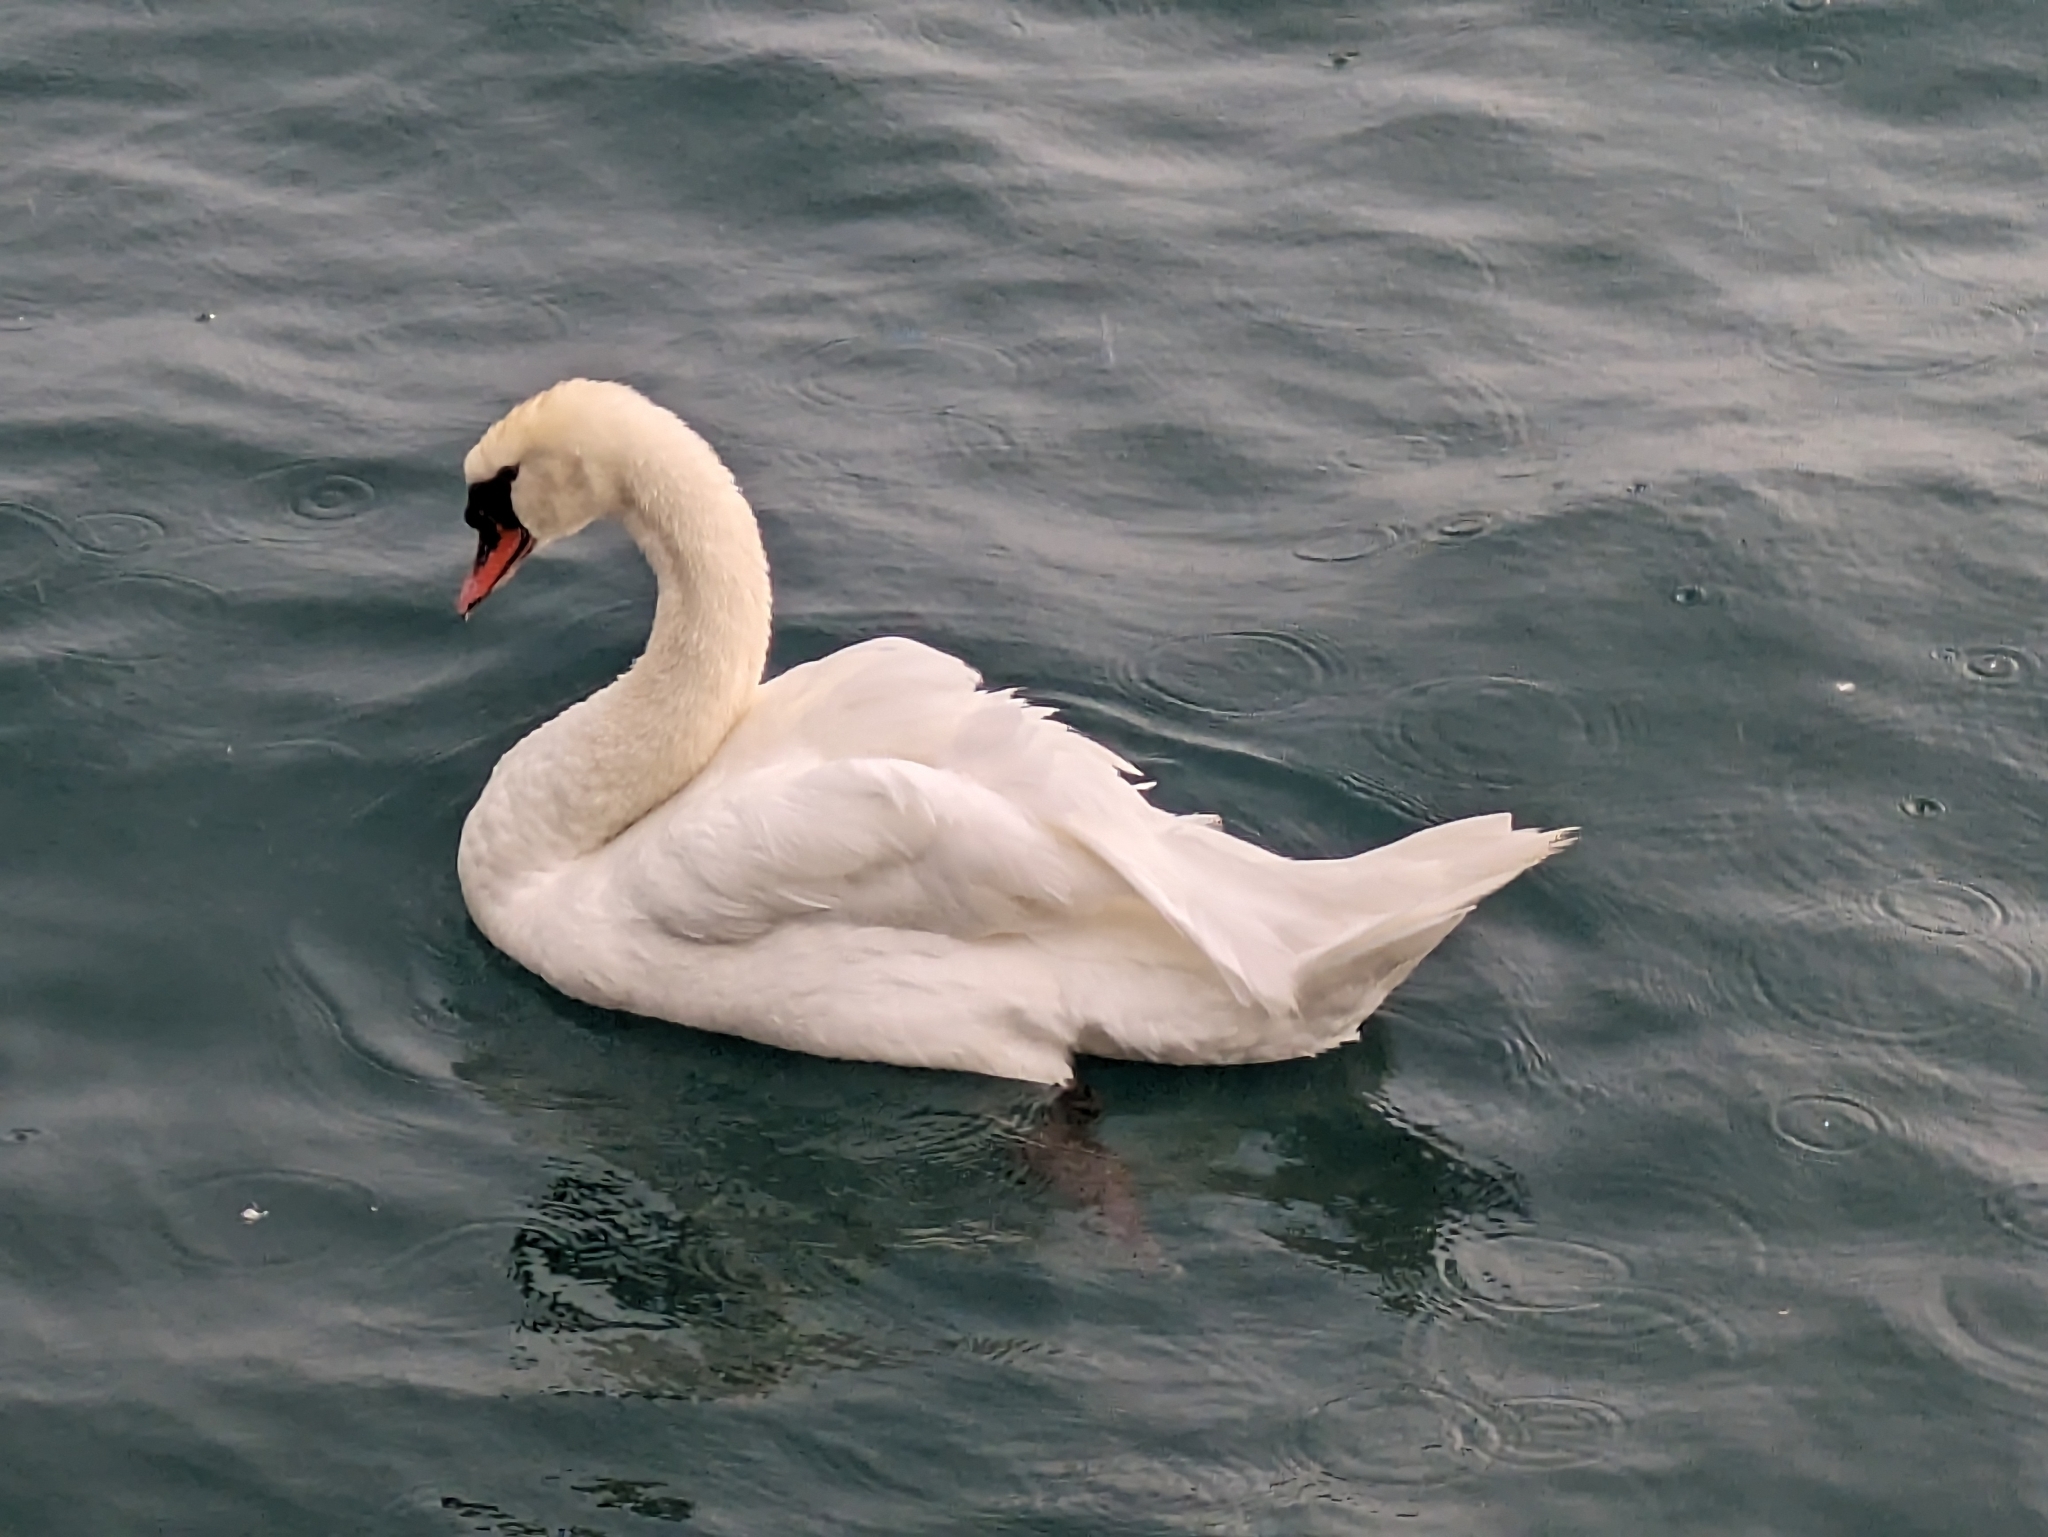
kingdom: Animalia
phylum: Chordata
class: Aves
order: Anseriformes
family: Anatidae
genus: Cygnus
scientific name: Cygnus olor
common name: Mute swan
